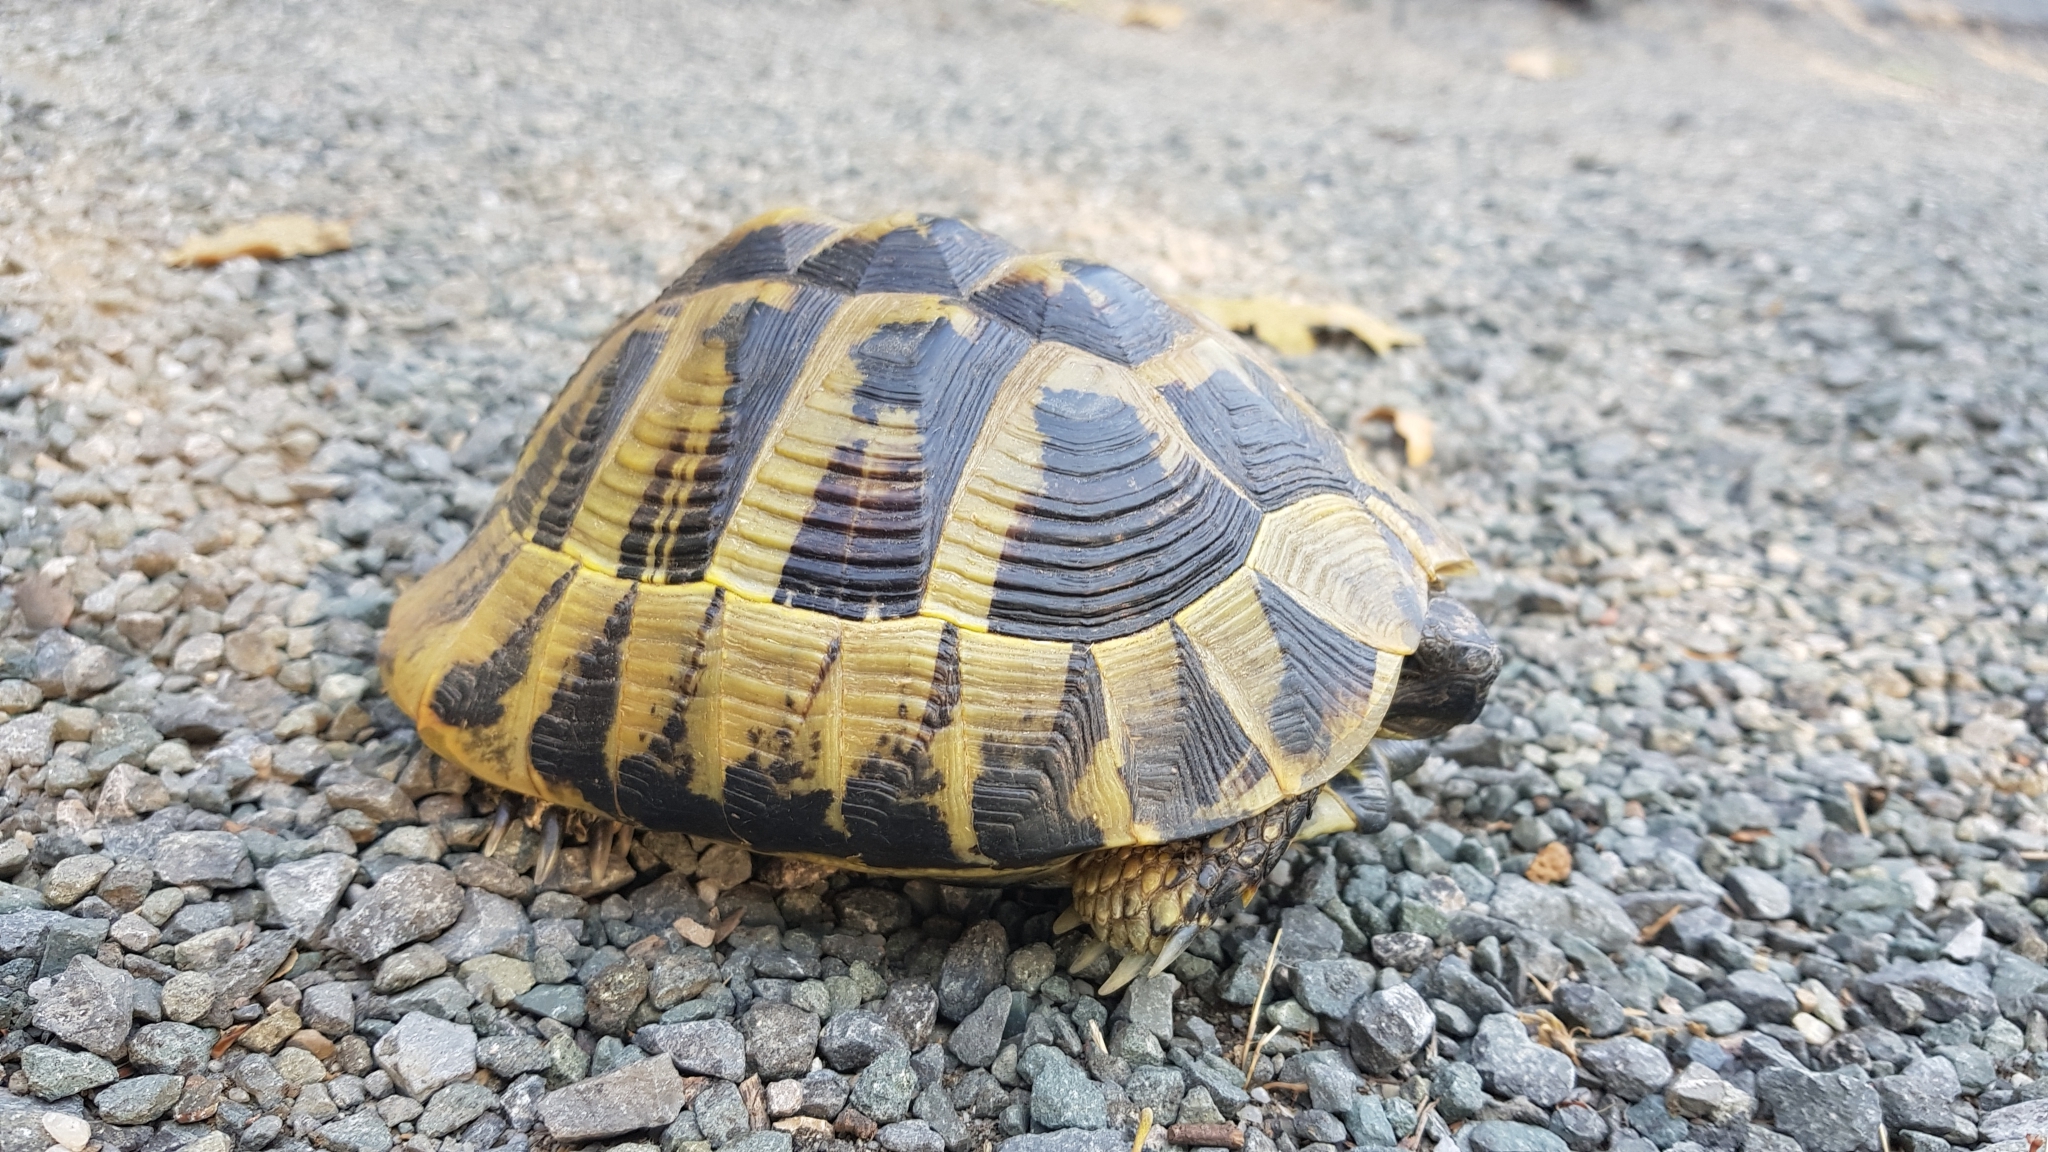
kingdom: Animalia
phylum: Chordata
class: Testudines
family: Testudinidae
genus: Testudo
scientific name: Testudo hermanni
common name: Hermann's tortoise
